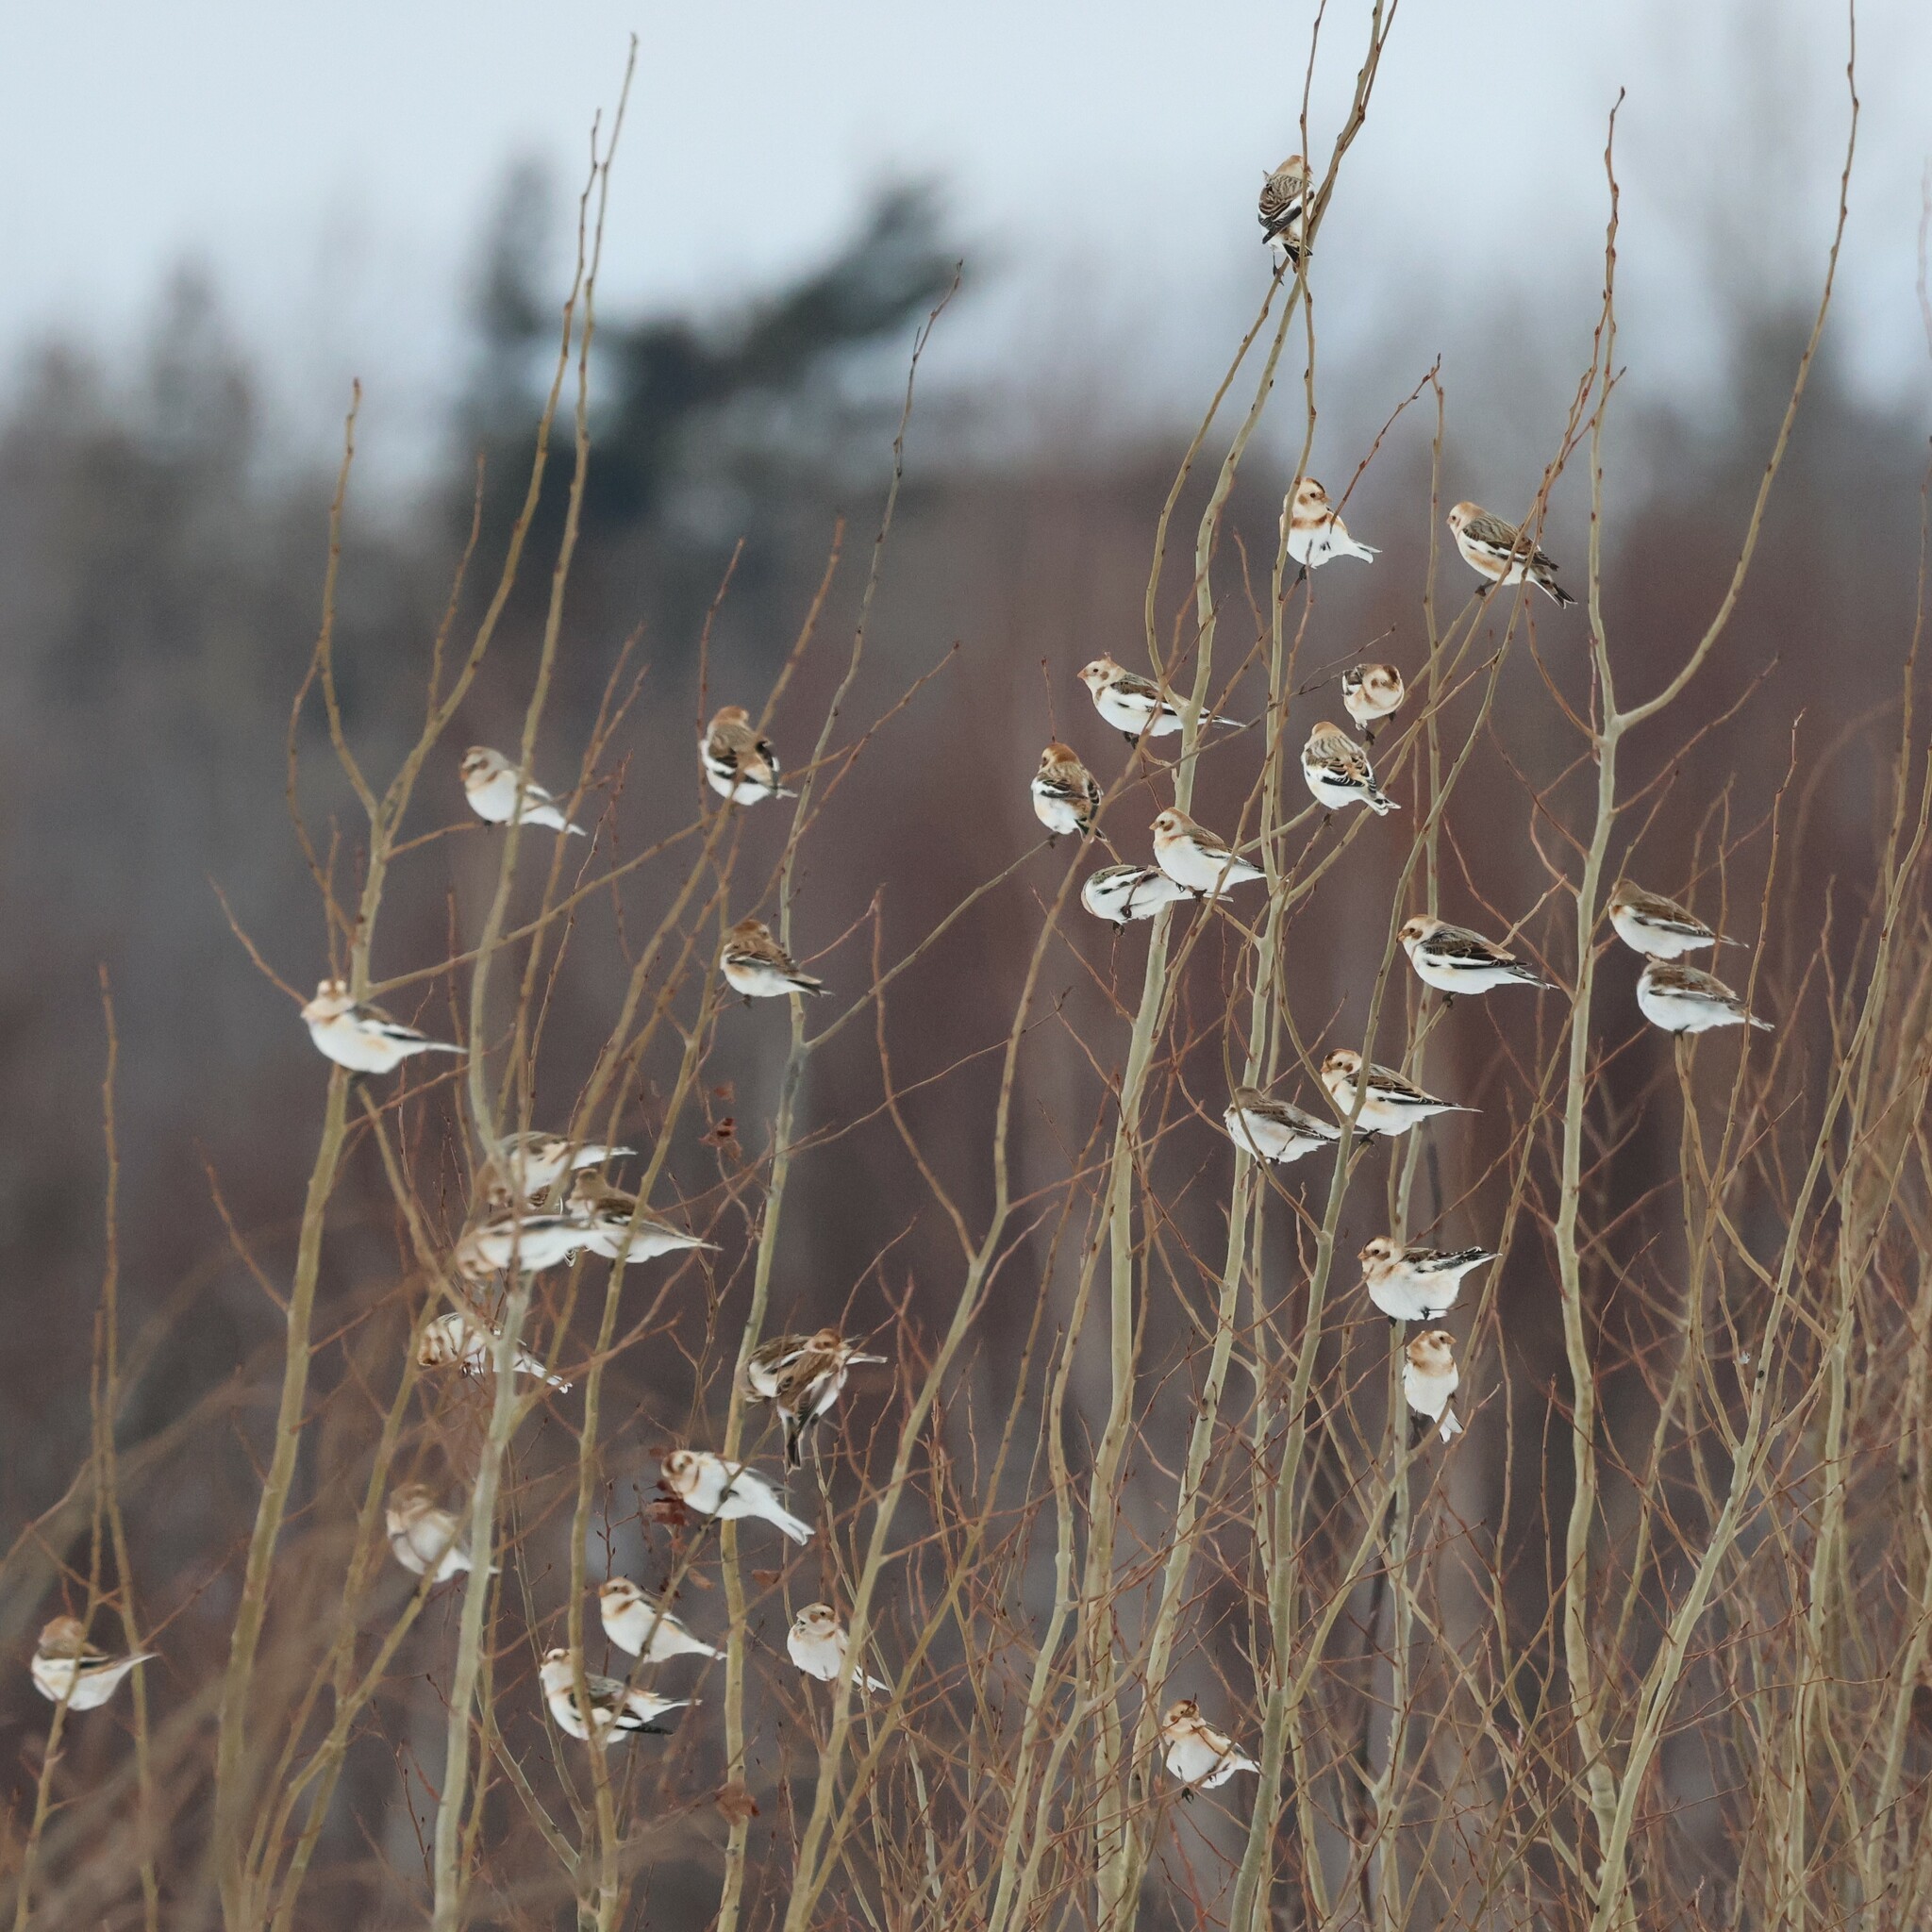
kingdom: Animalia
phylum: Chordata
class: Aves
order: Passeriformes
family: Calcariidae
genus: Plectrophenax
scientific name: Plectrophenax nivalis
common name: Snow bunting
